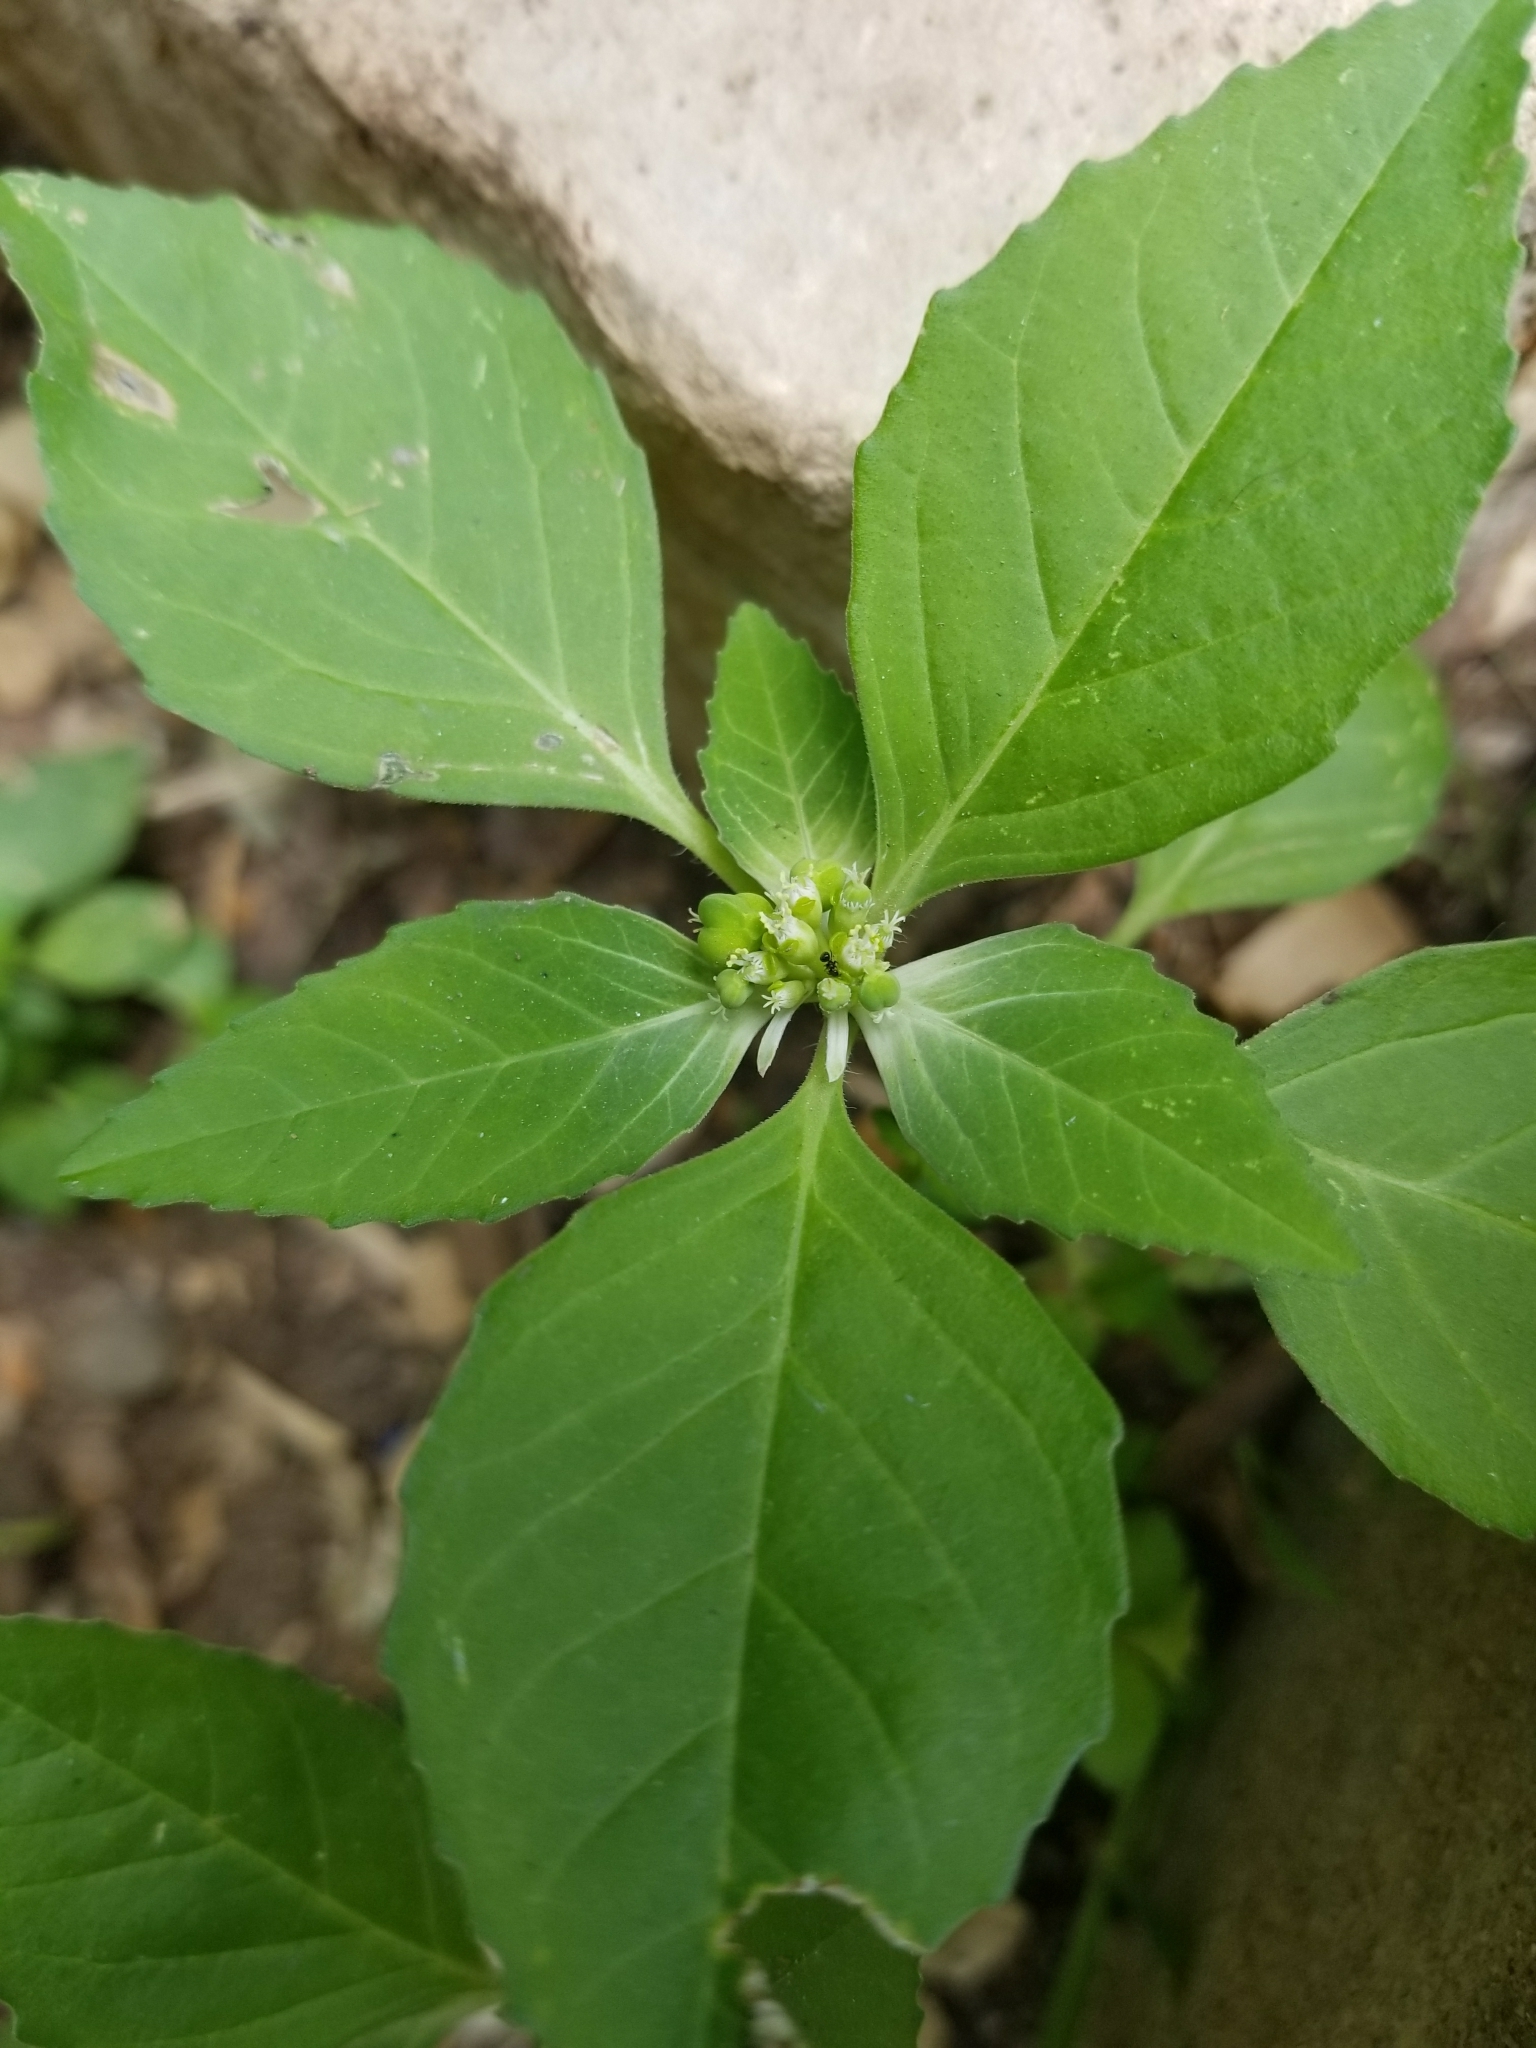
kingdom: Plantae
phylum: Tracheophyta
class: Magnoliopsida
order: Malpighiales
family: Euphorbiaceae
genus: Euphorbia
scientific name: Euphorbia dentata
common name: Dentate spurge
